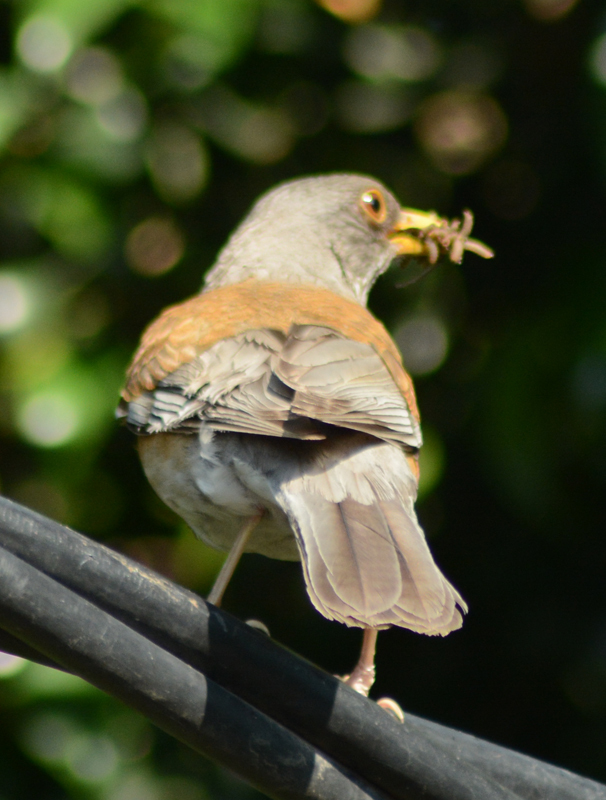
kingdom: Animalia
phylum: Chordata
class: Aves
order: Passeriformes
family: Turdidae
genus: Turdus
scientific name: Turdus rufopalliatus
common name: Rufous-backed robin
